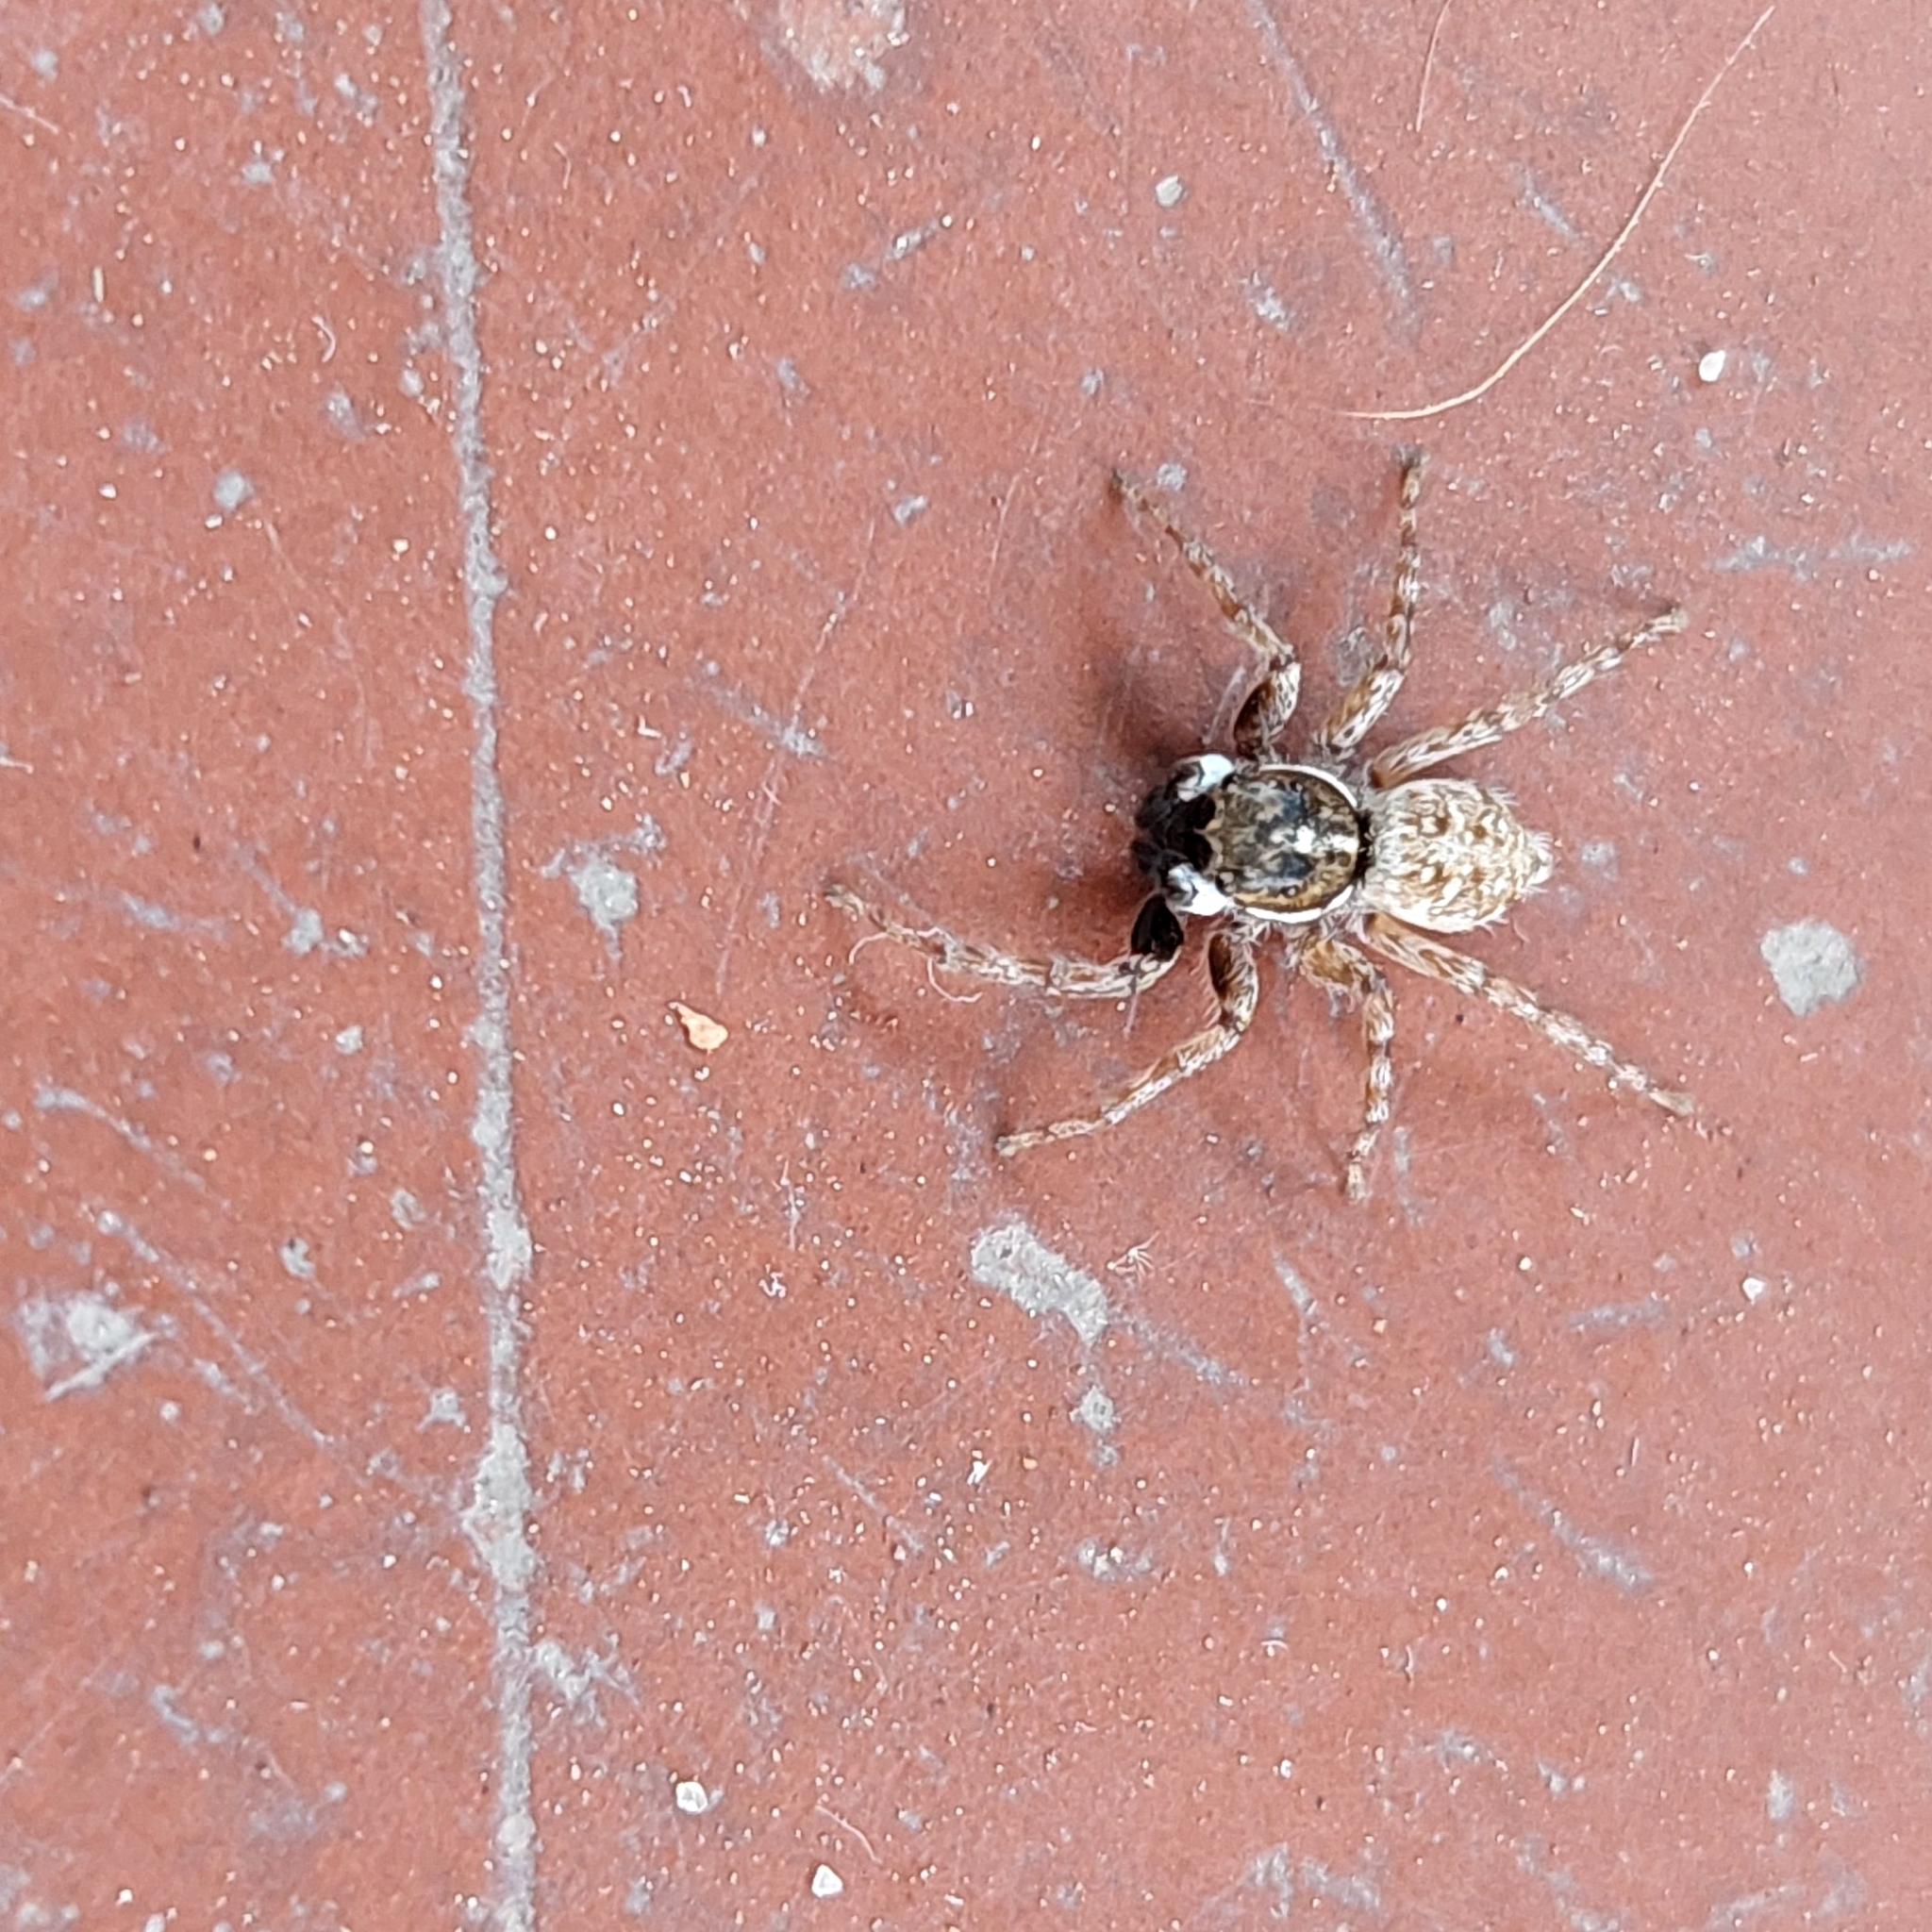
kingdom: Animalia
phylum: Arthropoda
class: Arachnida
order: Araneae
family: Salticidae
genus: Menemerus
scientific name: Menemerus semilimbatus
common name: Jumping spider
